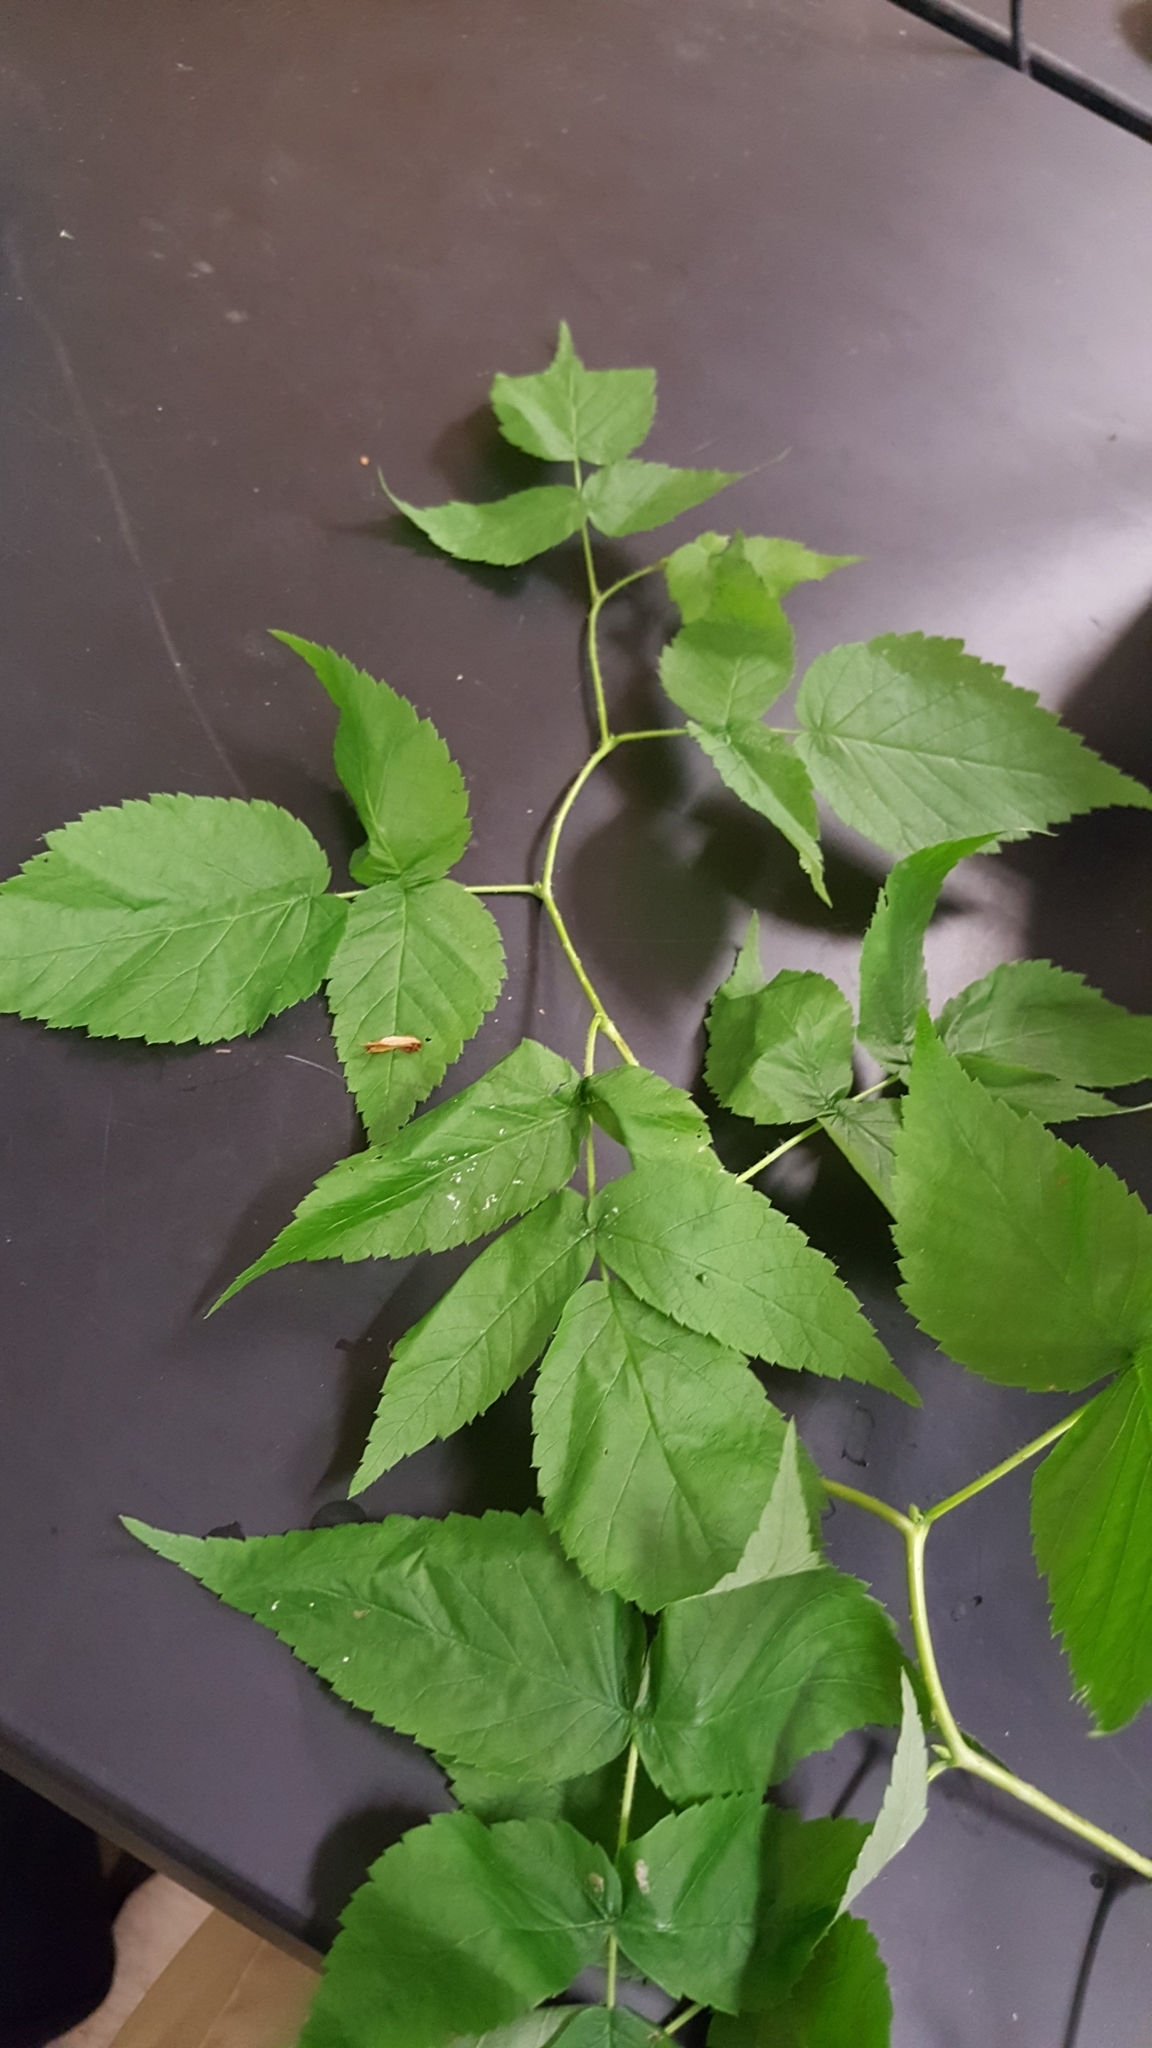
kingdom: Plantae
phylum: Tracheophyta
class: Magnoliopsida
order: Rosales
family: Rosaceae
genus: Rubus
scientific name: Rubus idaeus
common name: Raspberry
